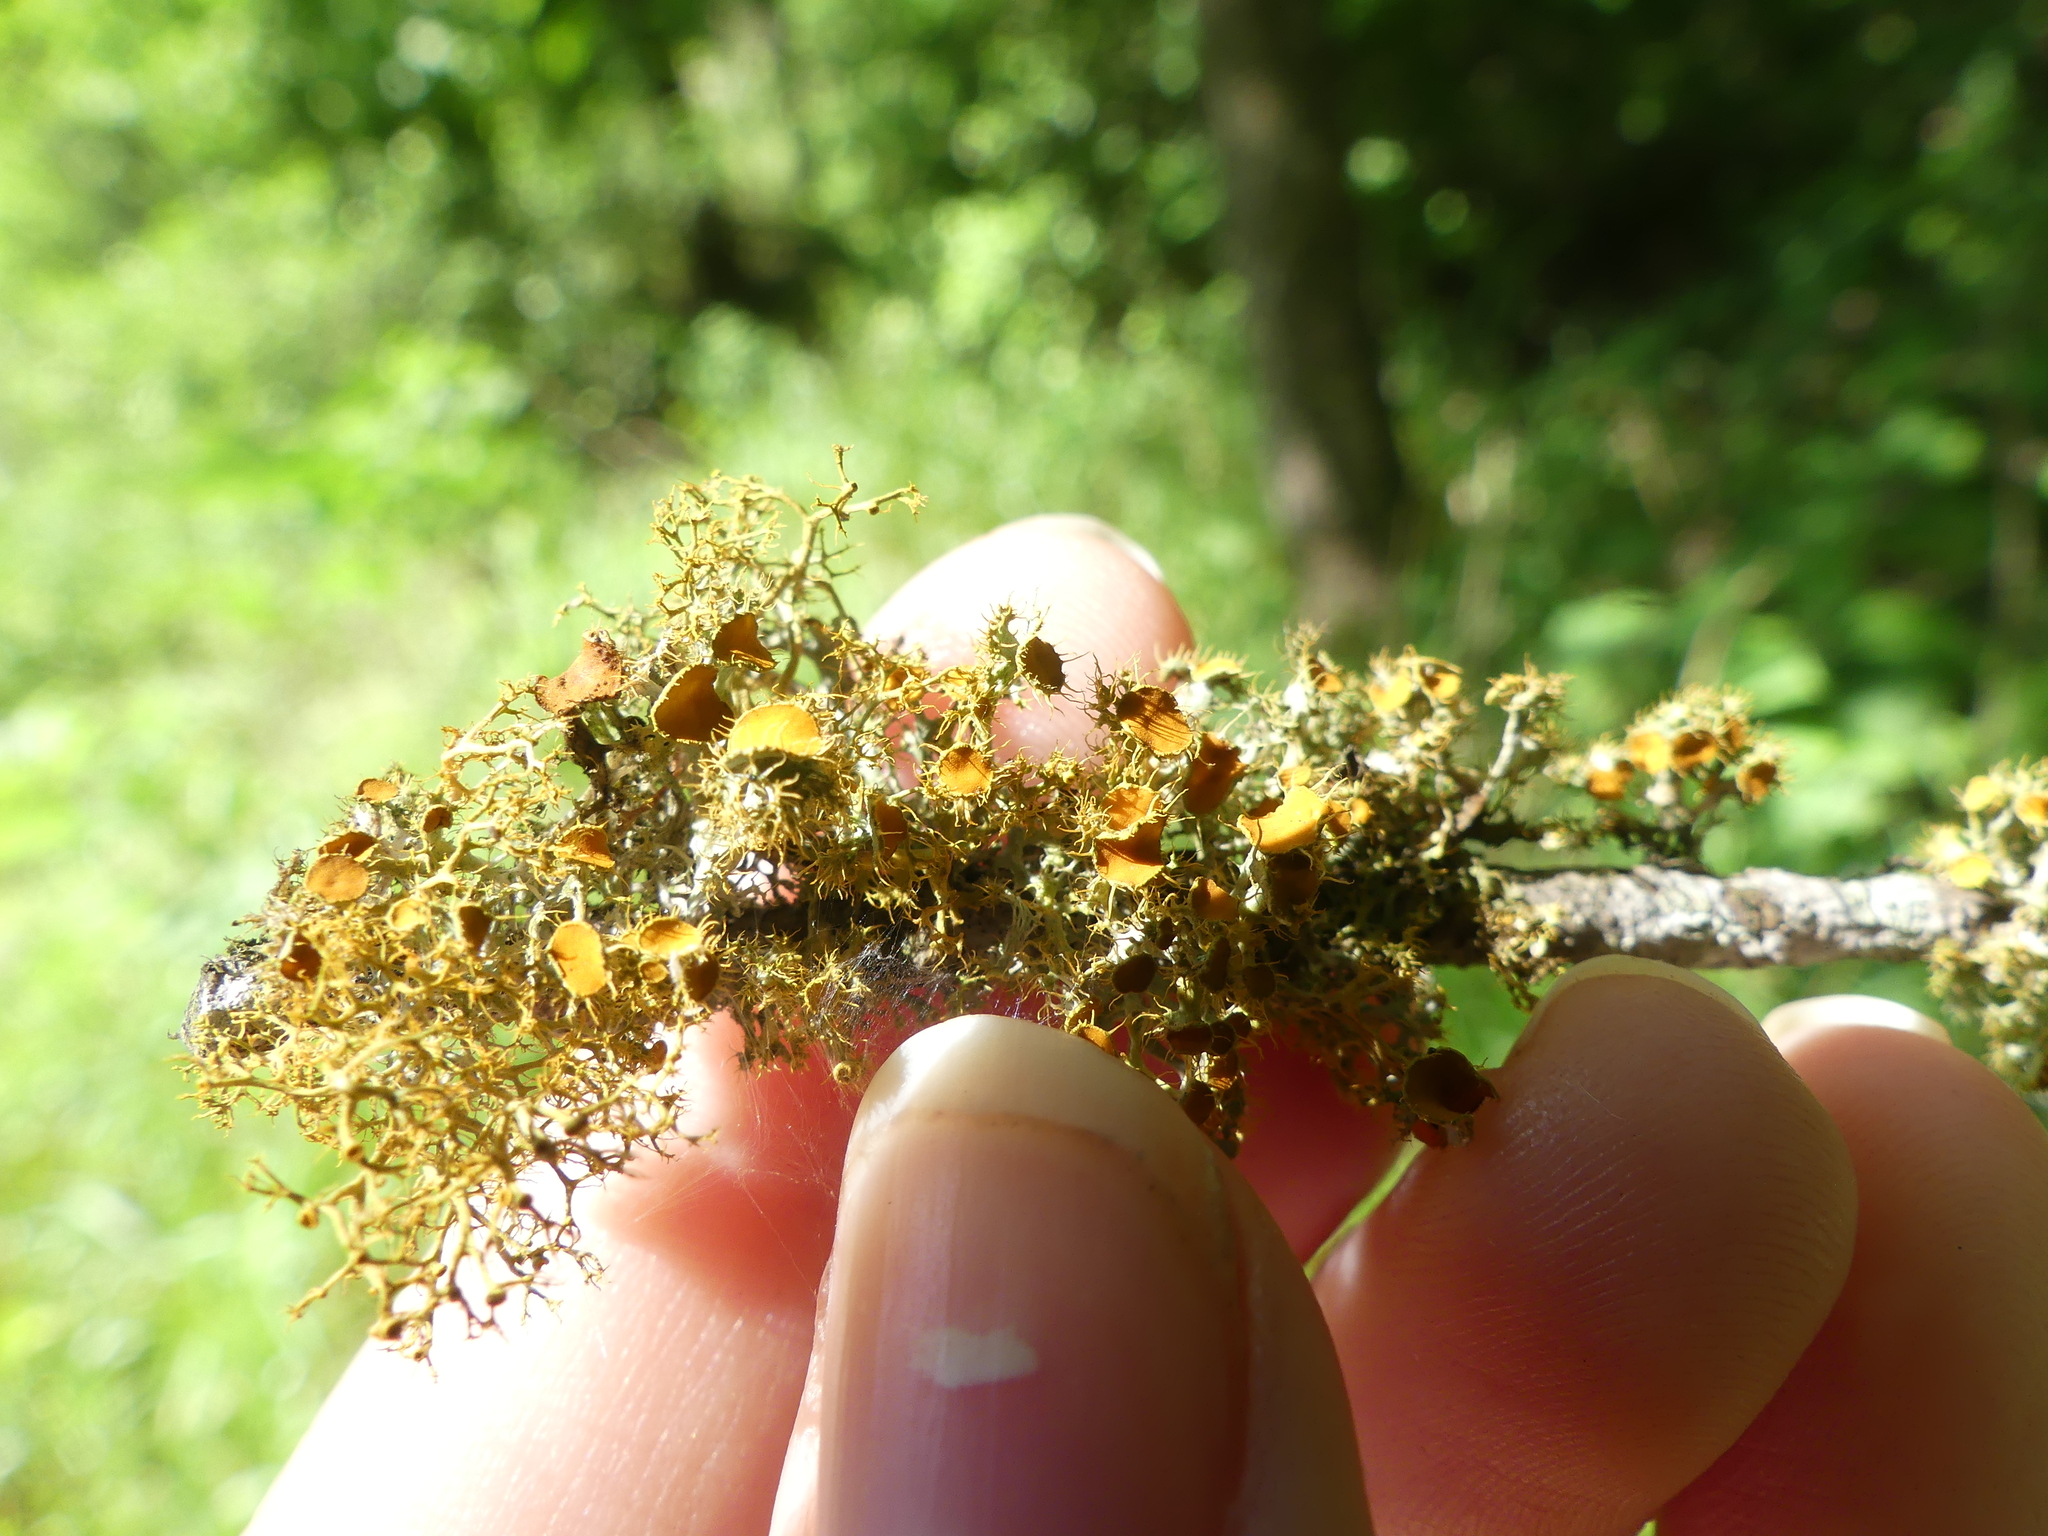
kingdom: Fungi
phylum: Ascomycota
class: Lecanoromycetes
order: Teloschistales
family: Teloschistaceae
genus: Niorma
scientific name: Niorma chrysophthalma
